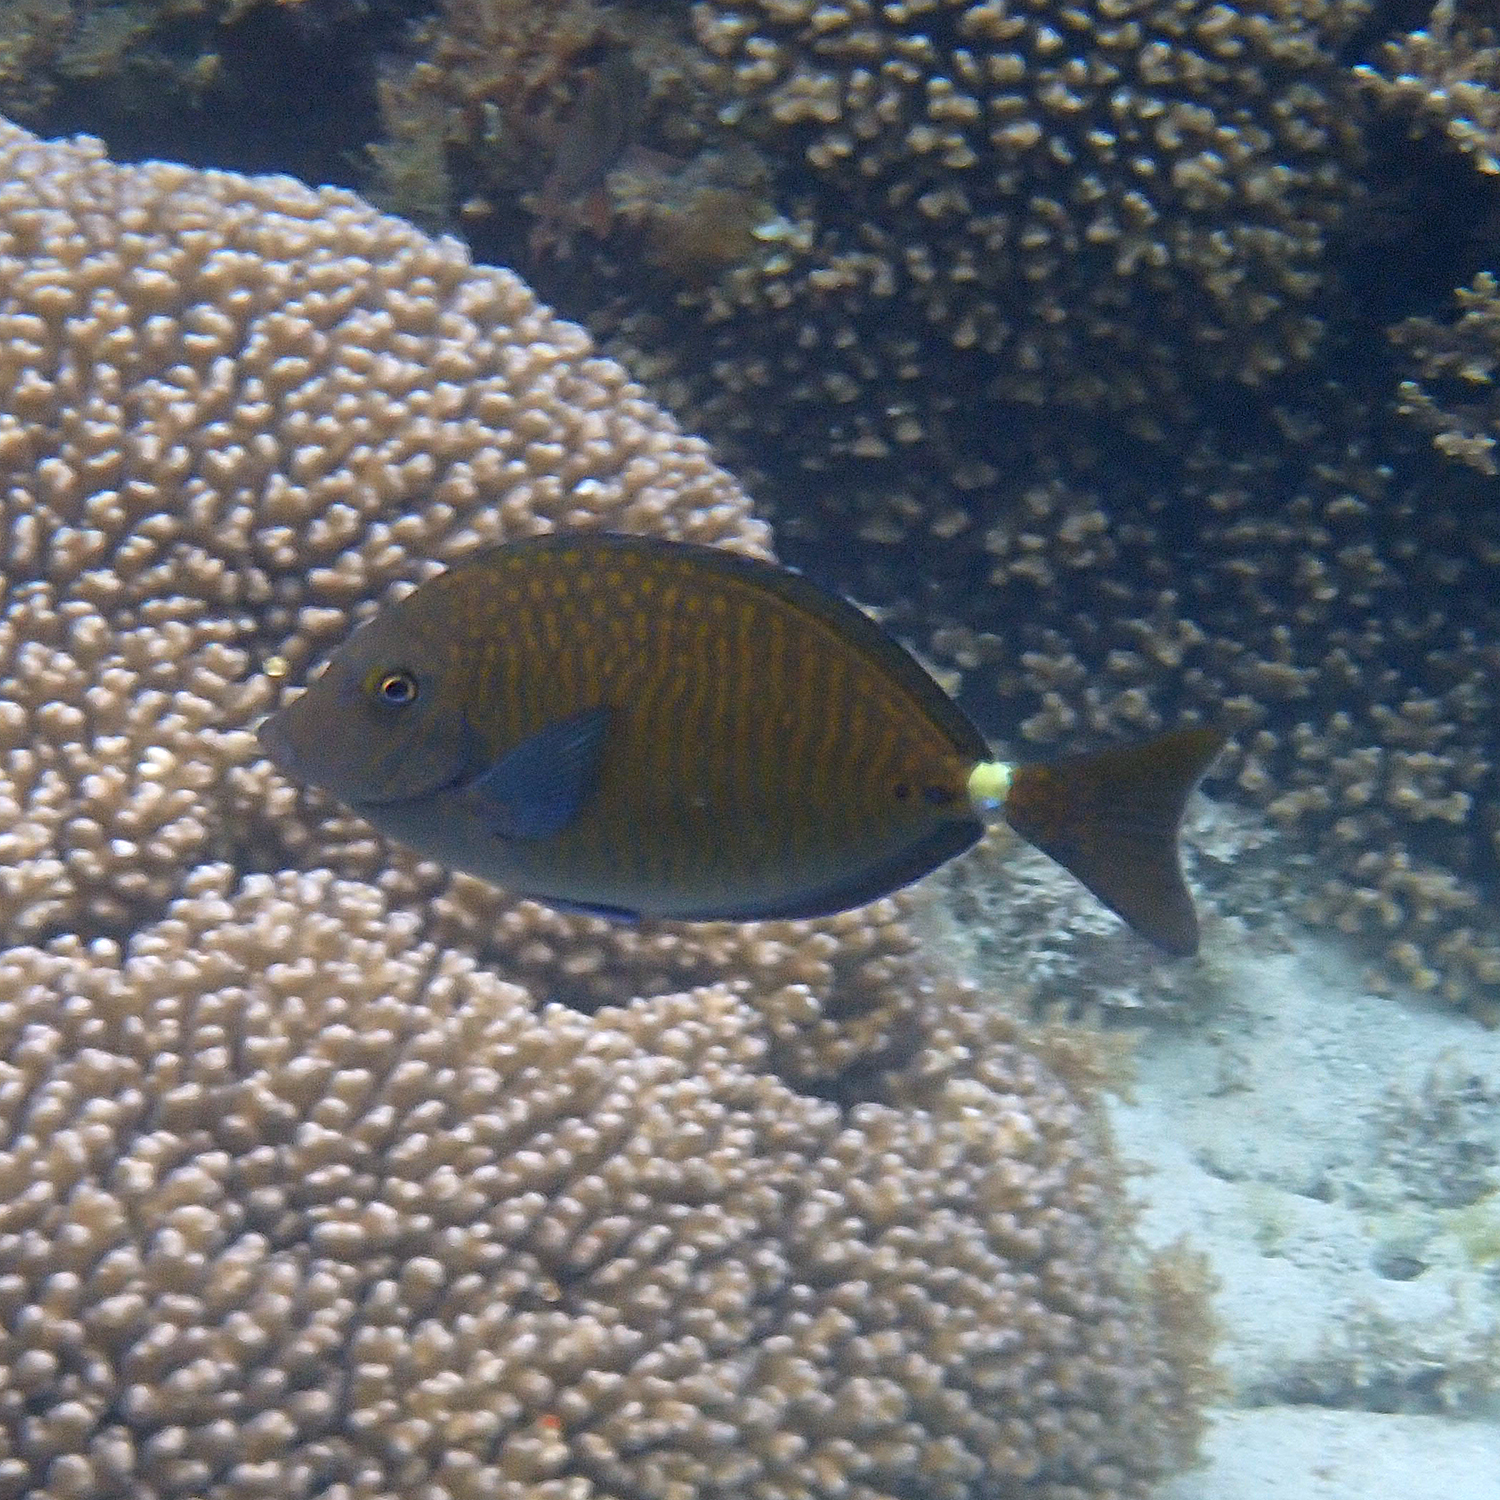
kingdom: Animalia
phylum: Chordata
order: Perciformes
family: Acanthuridae
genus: Prionurus
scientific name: Prionurus maculatus
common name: Yellowspotted sawtail
